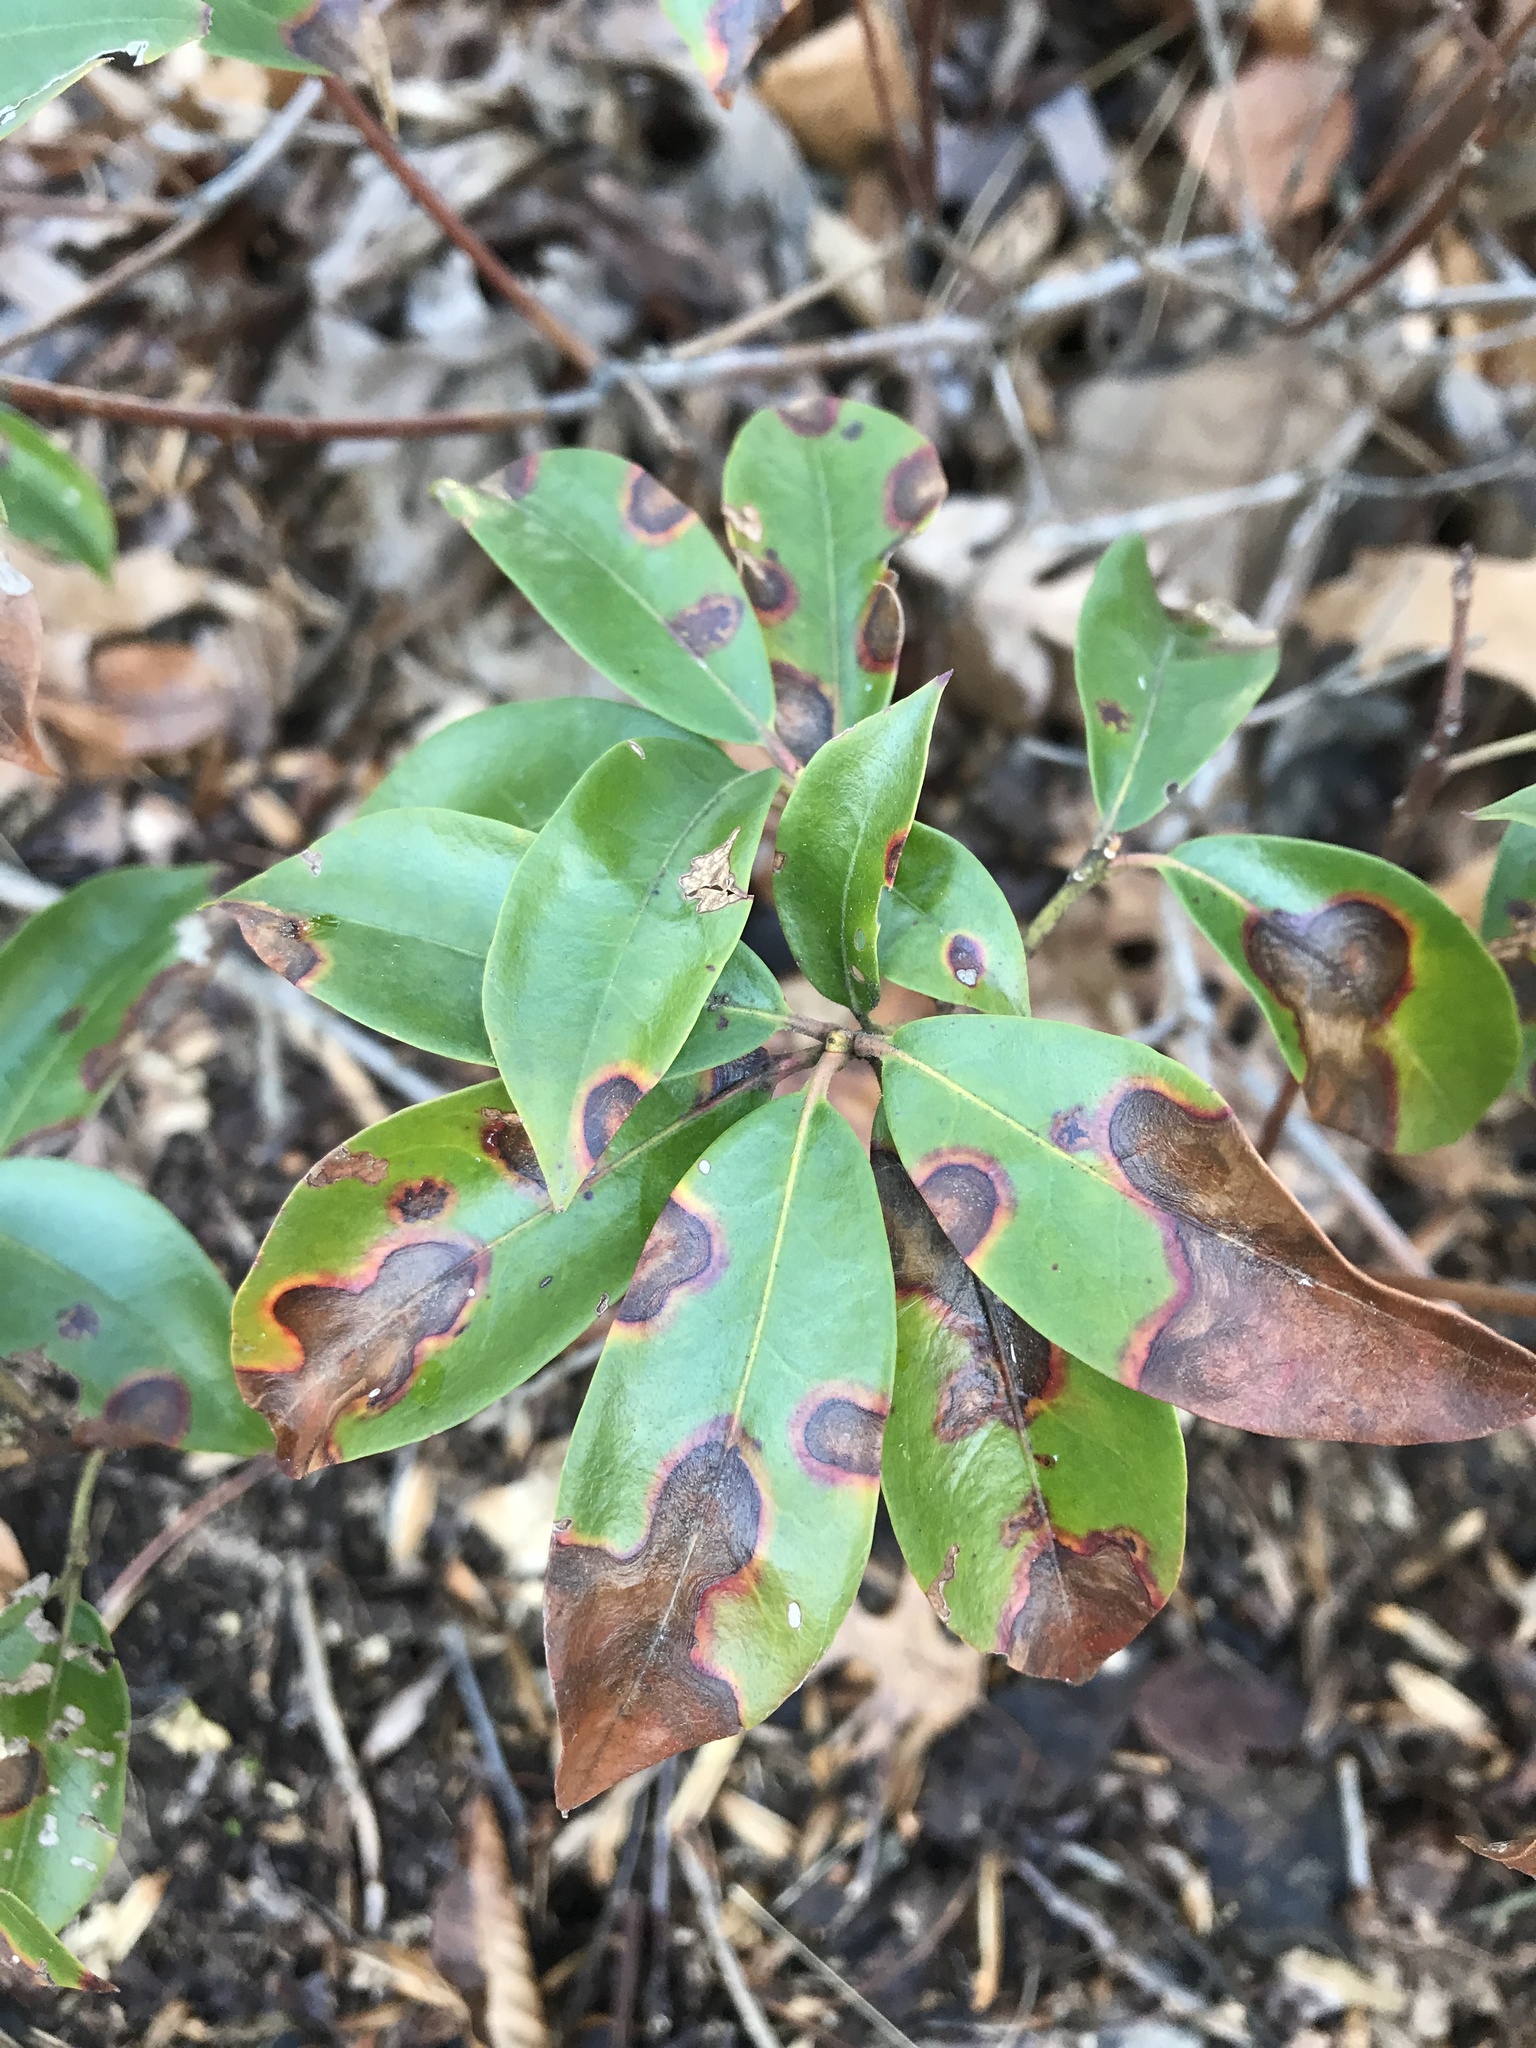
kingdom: Fungi
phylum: Ascomycota
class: Sordariomycetes
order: Diaporthales
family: Diaporthaceae
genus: Diaporthe
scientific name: Diaporthe kalmiae
